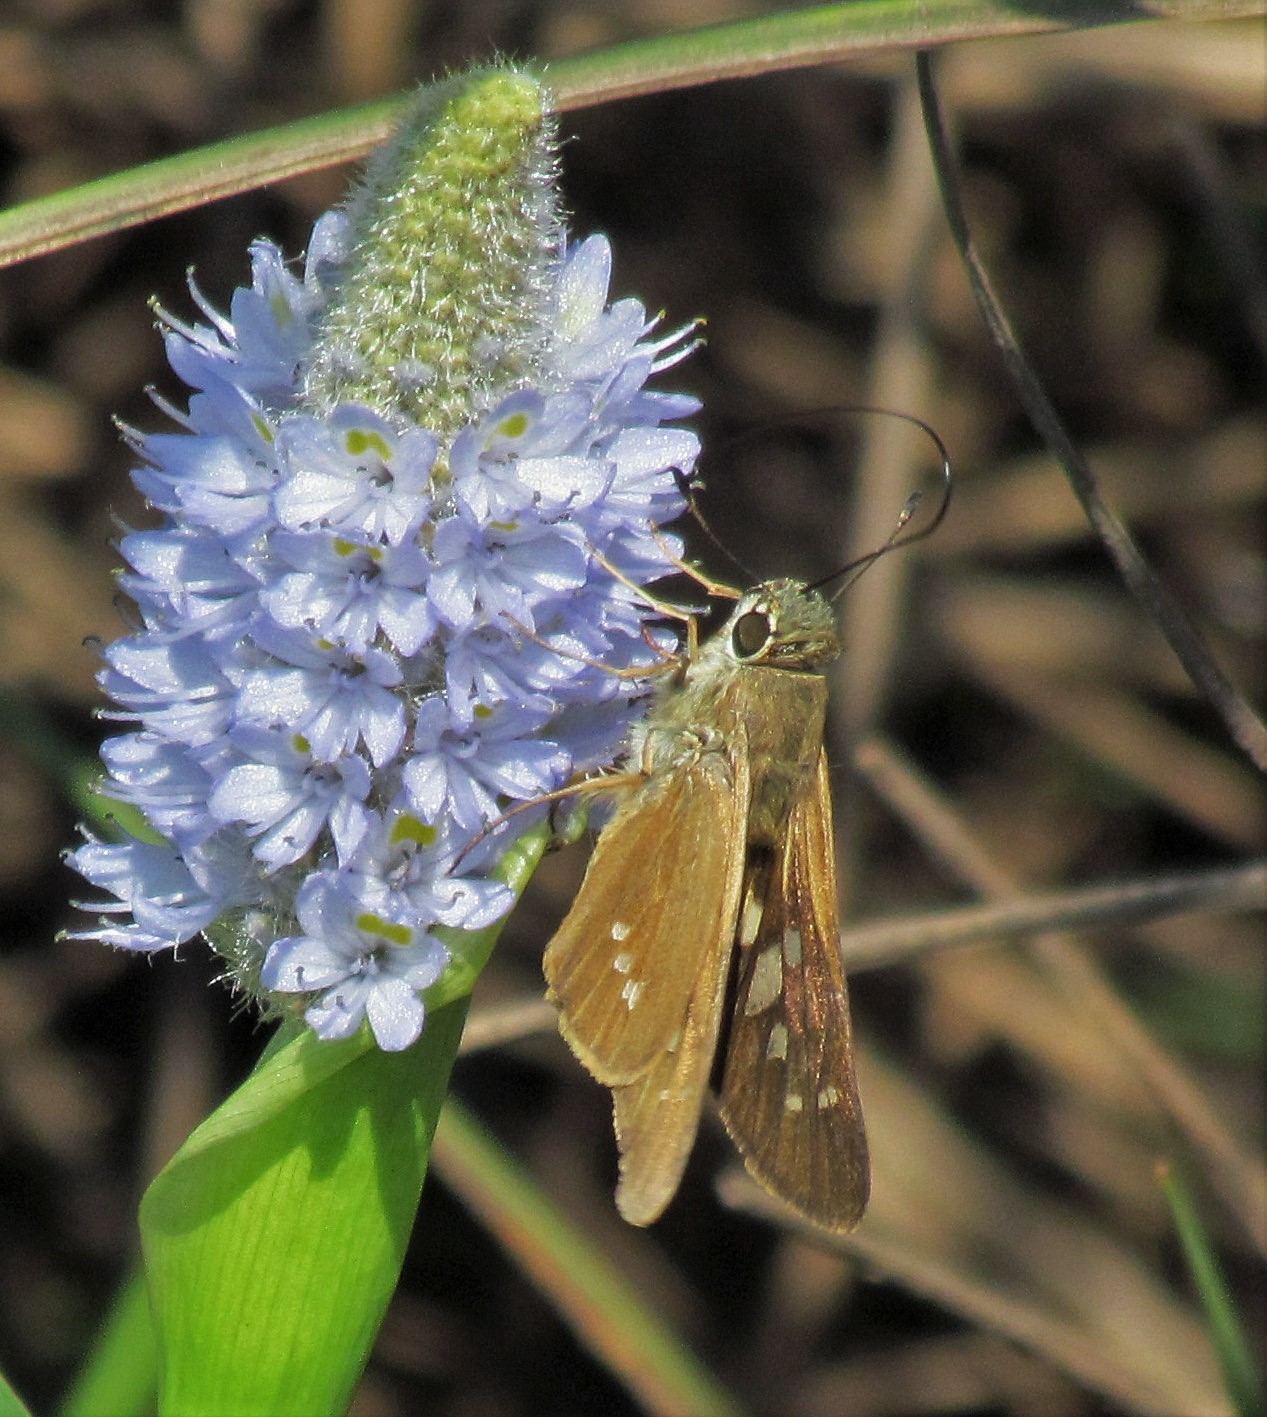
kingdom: Animalia
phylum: Arthropoda
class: Insecta
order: Lepidoptera
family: Hesperiidae
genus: Calpodes
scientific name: Calpodes ethlius
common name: Brazilian skipper
